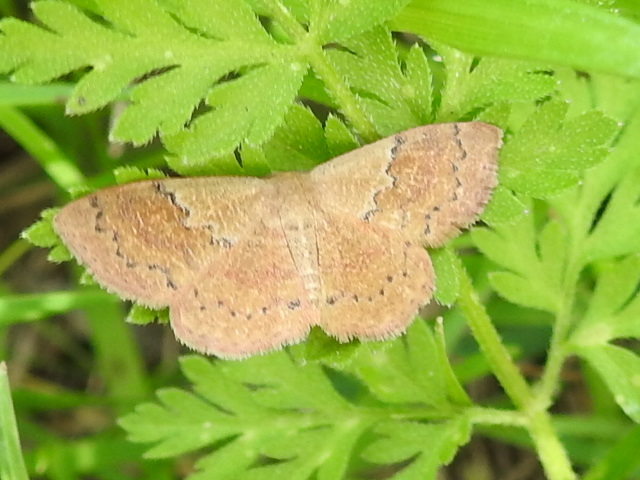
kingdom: Animalia
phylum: Arthropoda
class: Insecta
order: Lepidoptera
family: Geometridae
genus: Leptostales
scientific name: Leptostales ferruminaria
